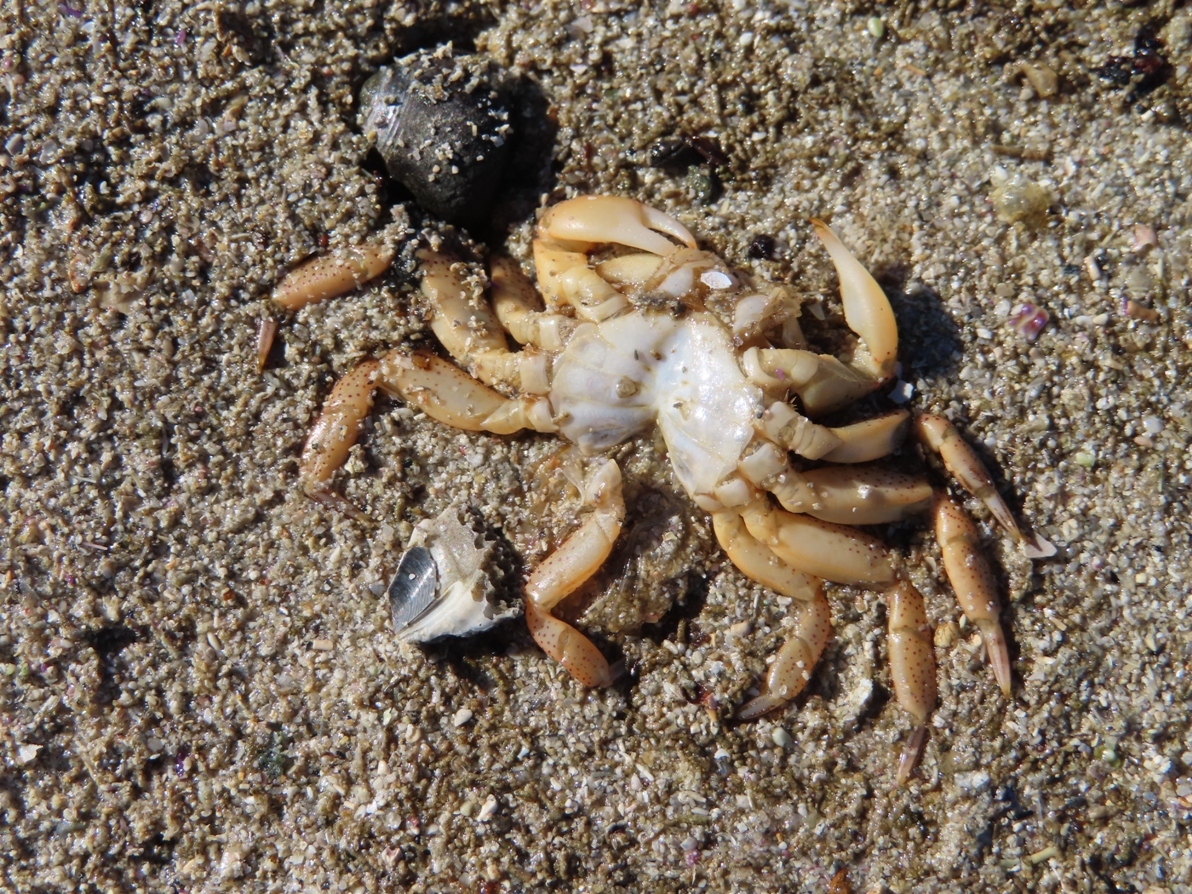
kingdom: Animalia
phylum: Arthropoda
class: Malacostraca
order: Decapoda
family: Varunidae
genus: Cyclograpsus
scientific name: Cyclograpsus punctatus
